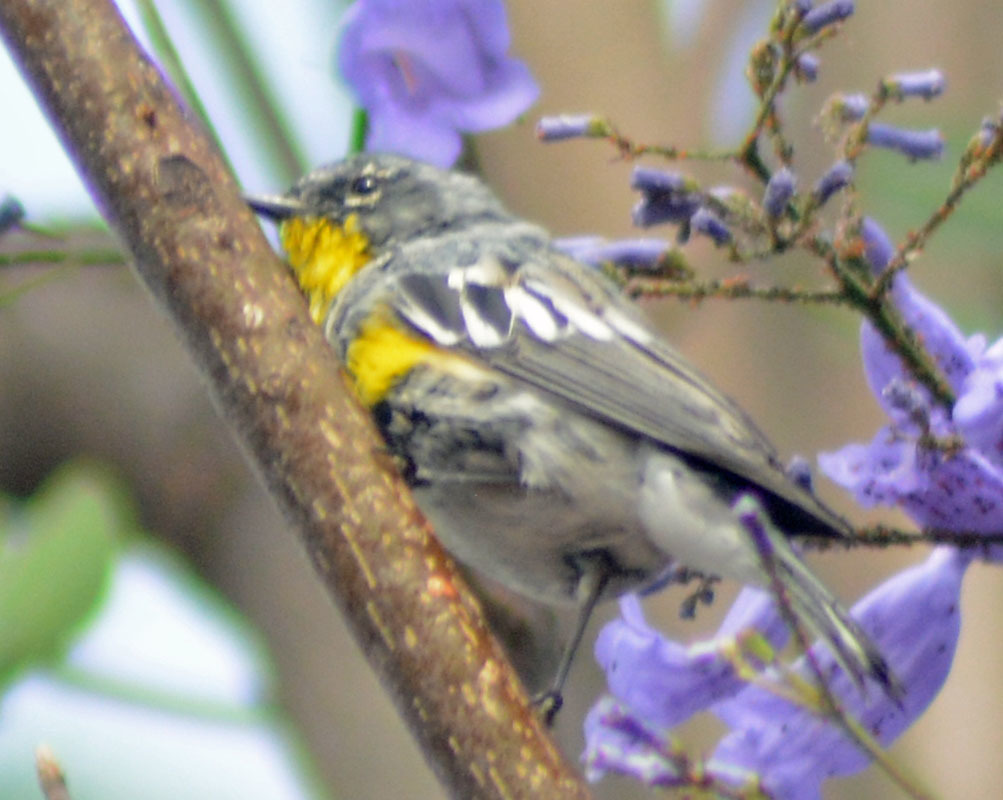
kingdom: Animalia
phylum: Chordata
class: Aves
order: Passeriformes
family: Parulidae
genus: Setophaga
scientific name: Setophaga auduboni
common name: Audubon's warbler
